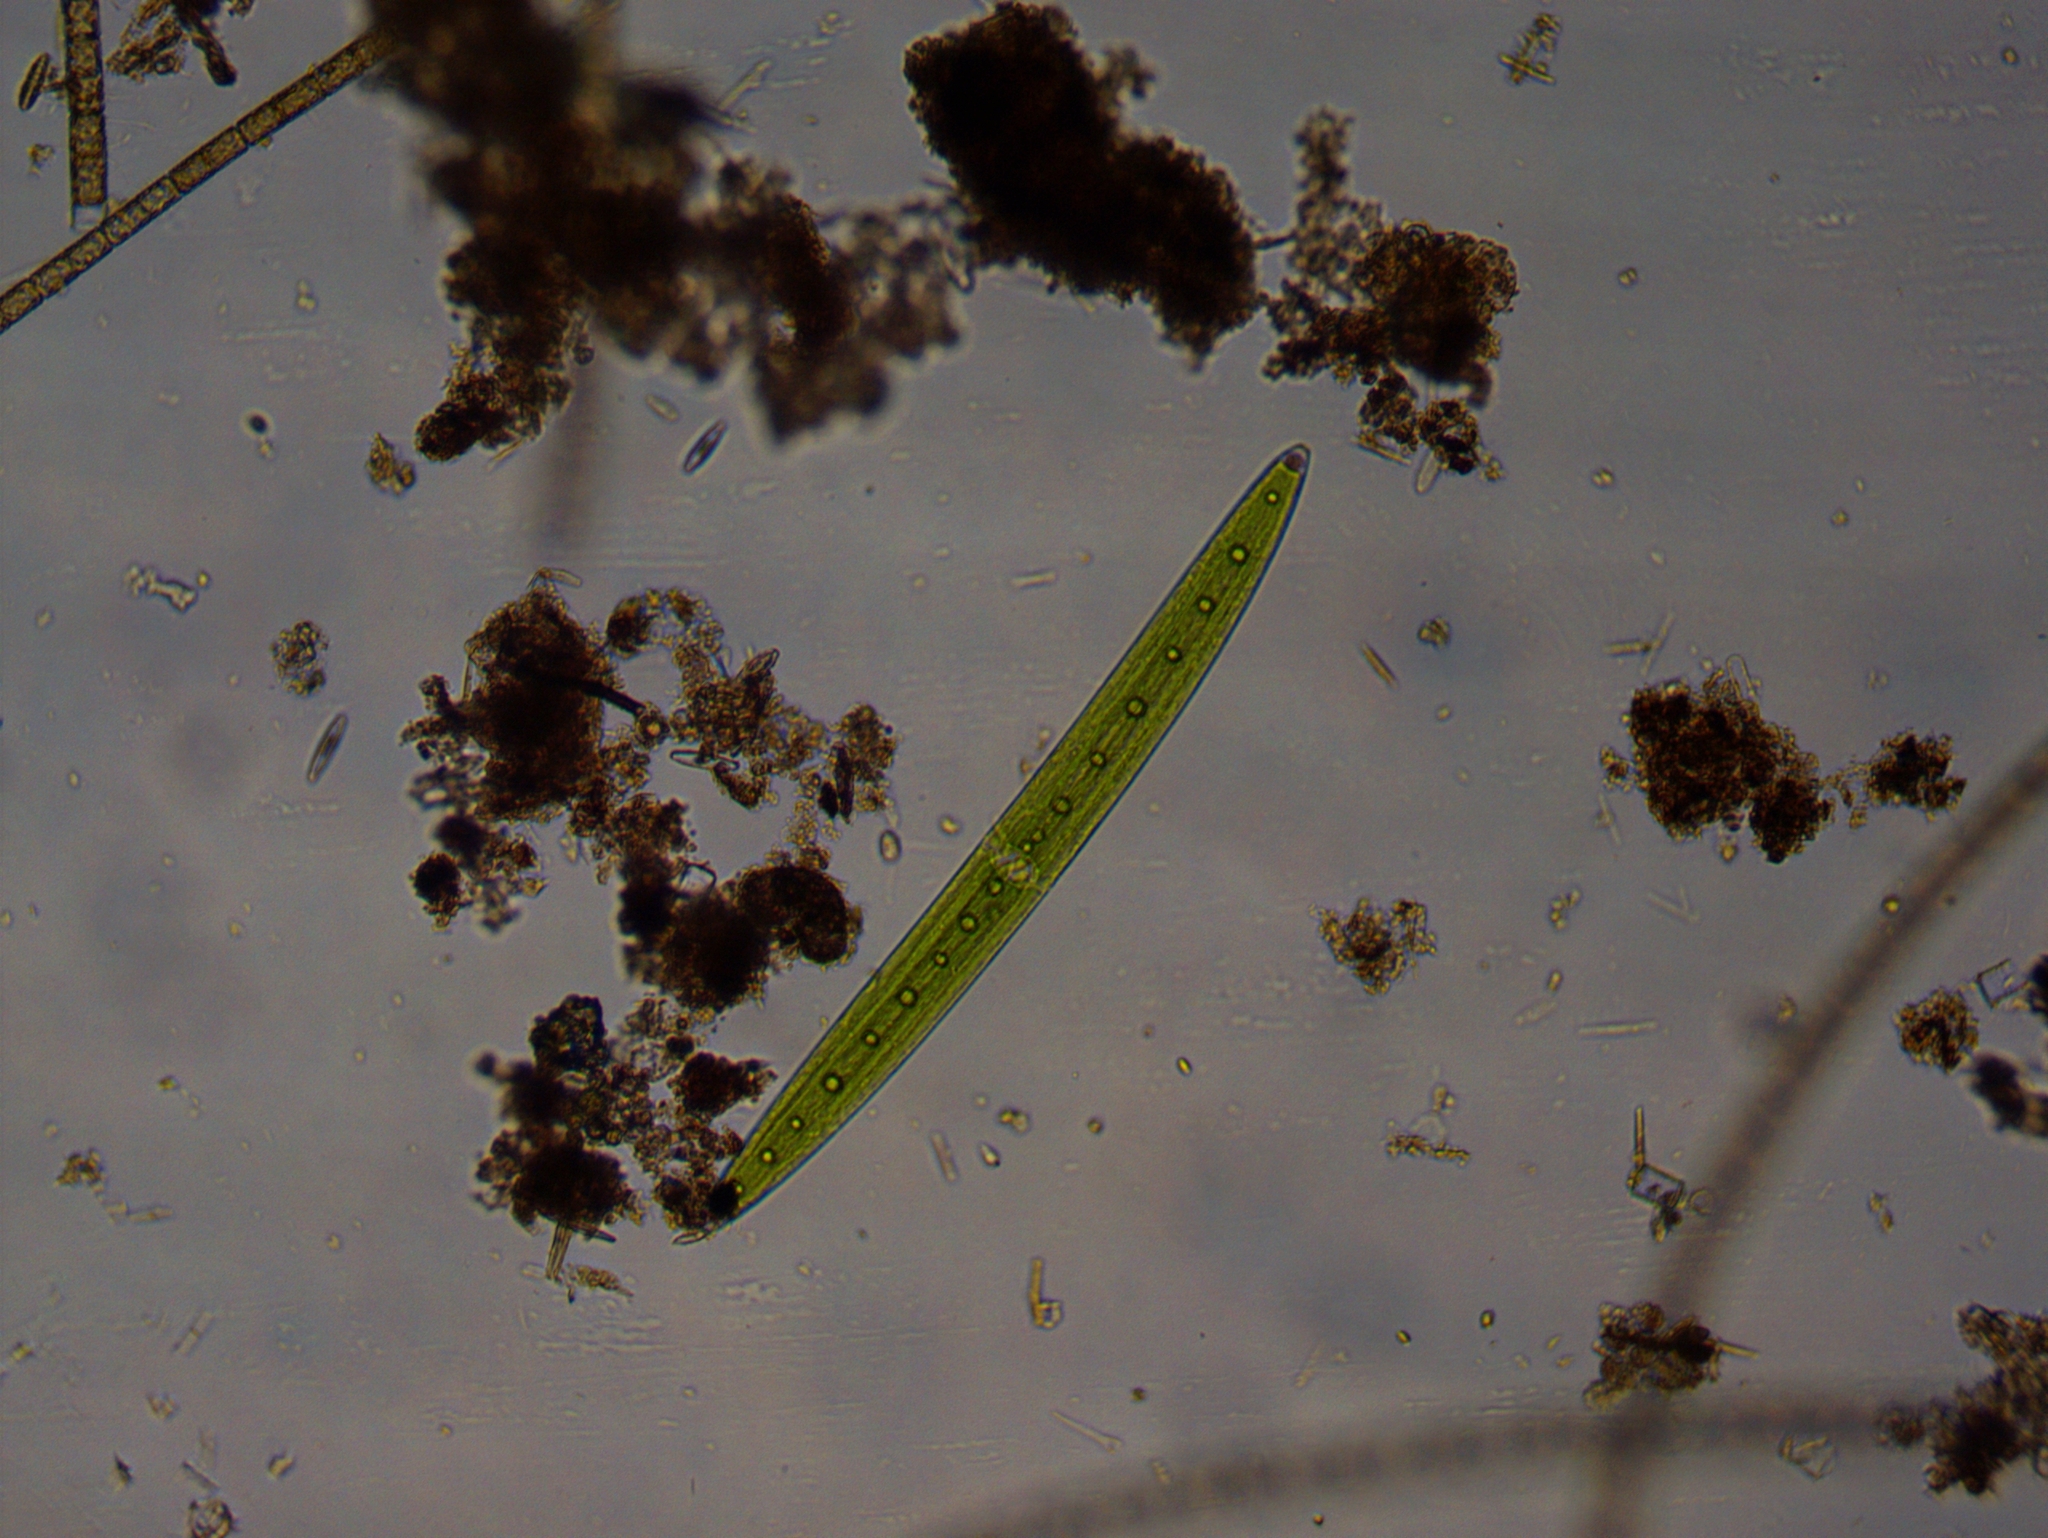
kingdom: Plantae
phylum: Charophyta
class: Zygnematophyceae
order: Zygnematales
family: Closteriaceae
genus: Closterium
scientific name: Closterium acerosum
